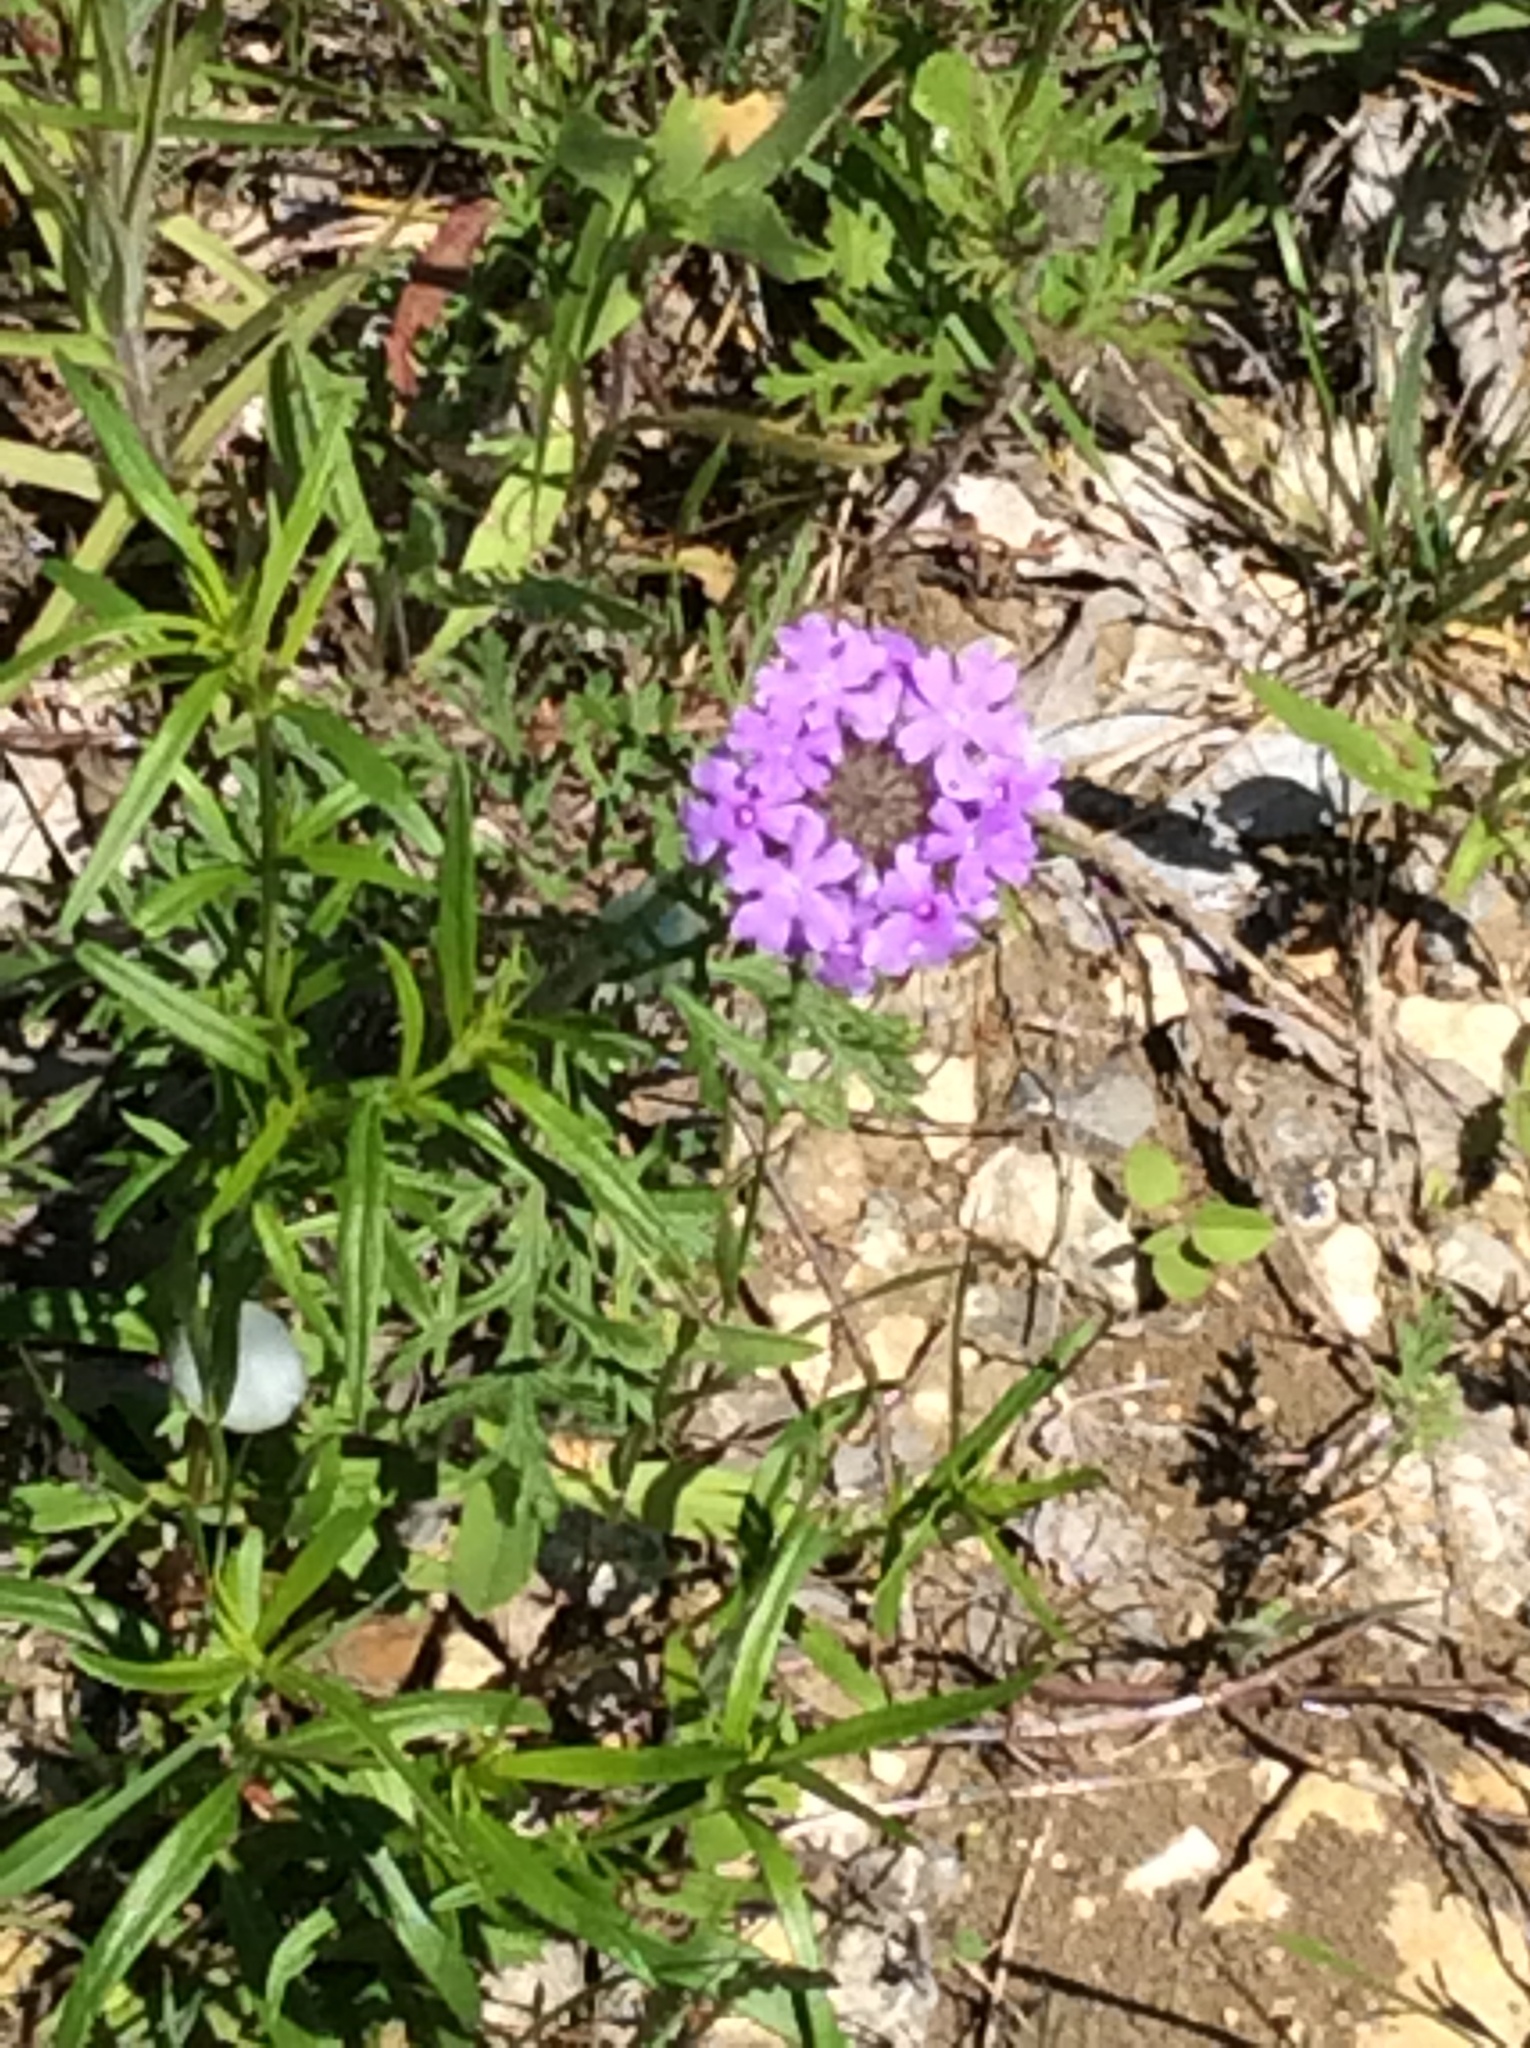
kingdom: Plantae
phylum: Tracheophyta
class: Magnoliopsida
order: Lamiales
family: Verbenaceae
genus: Verbena
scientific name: Verbena bipinnatifida
